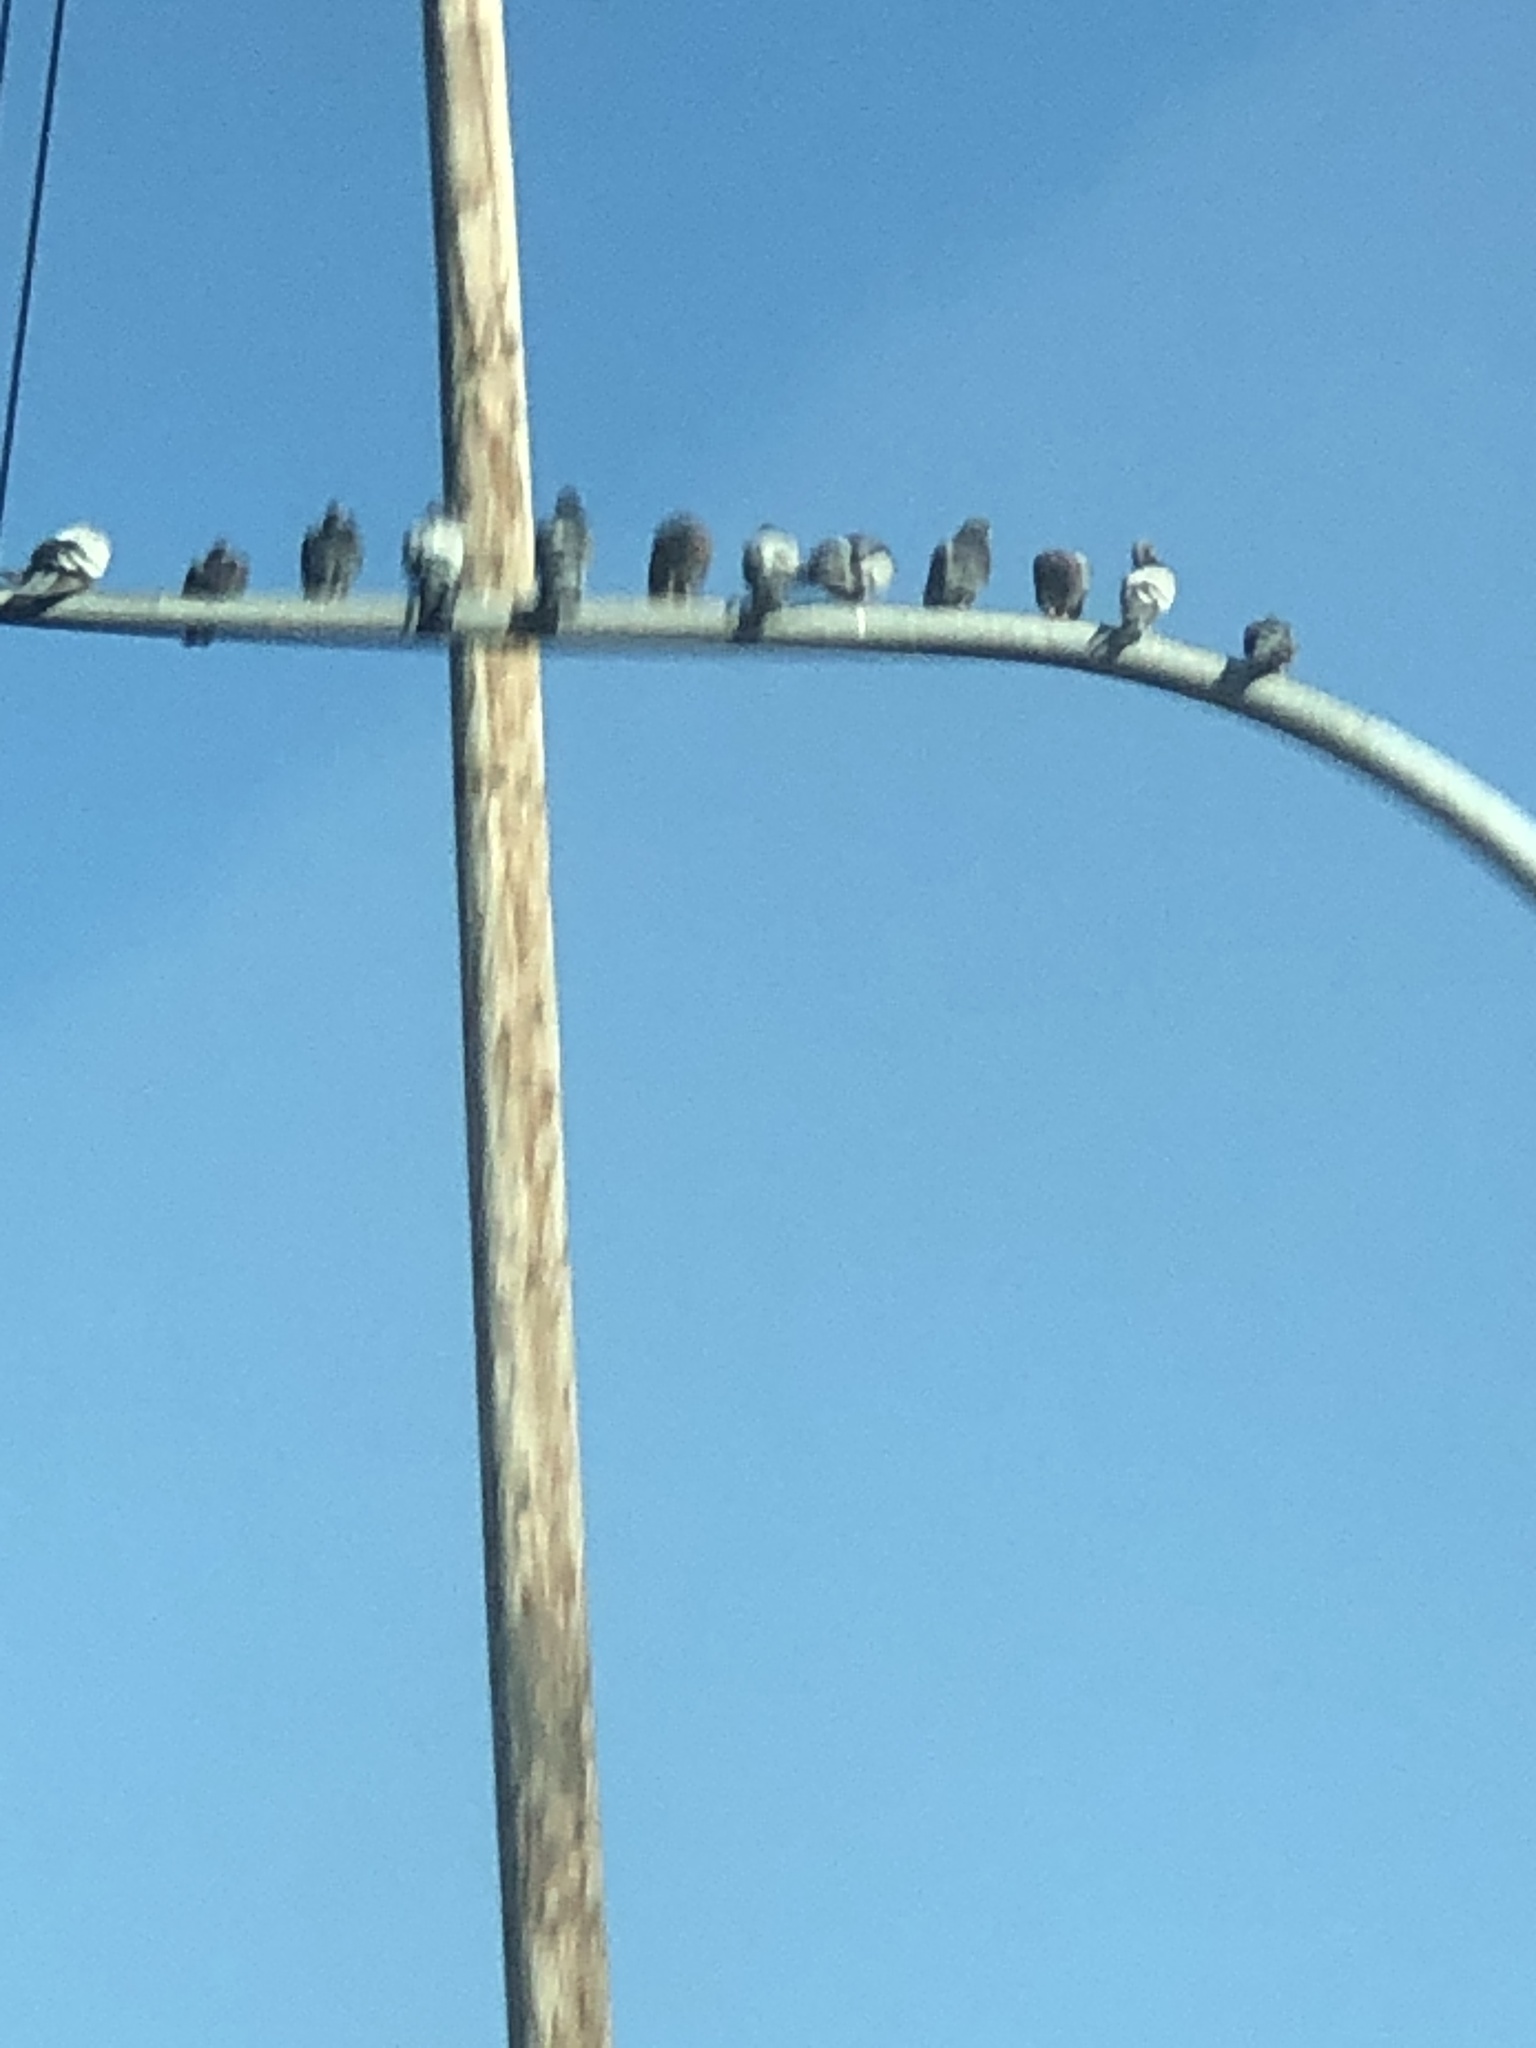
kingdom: Animalia
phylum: Chordata
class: Aves
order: Columbiformes
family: Columbidae
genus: Columba
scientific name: Columba livia
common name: Rock pigeon
